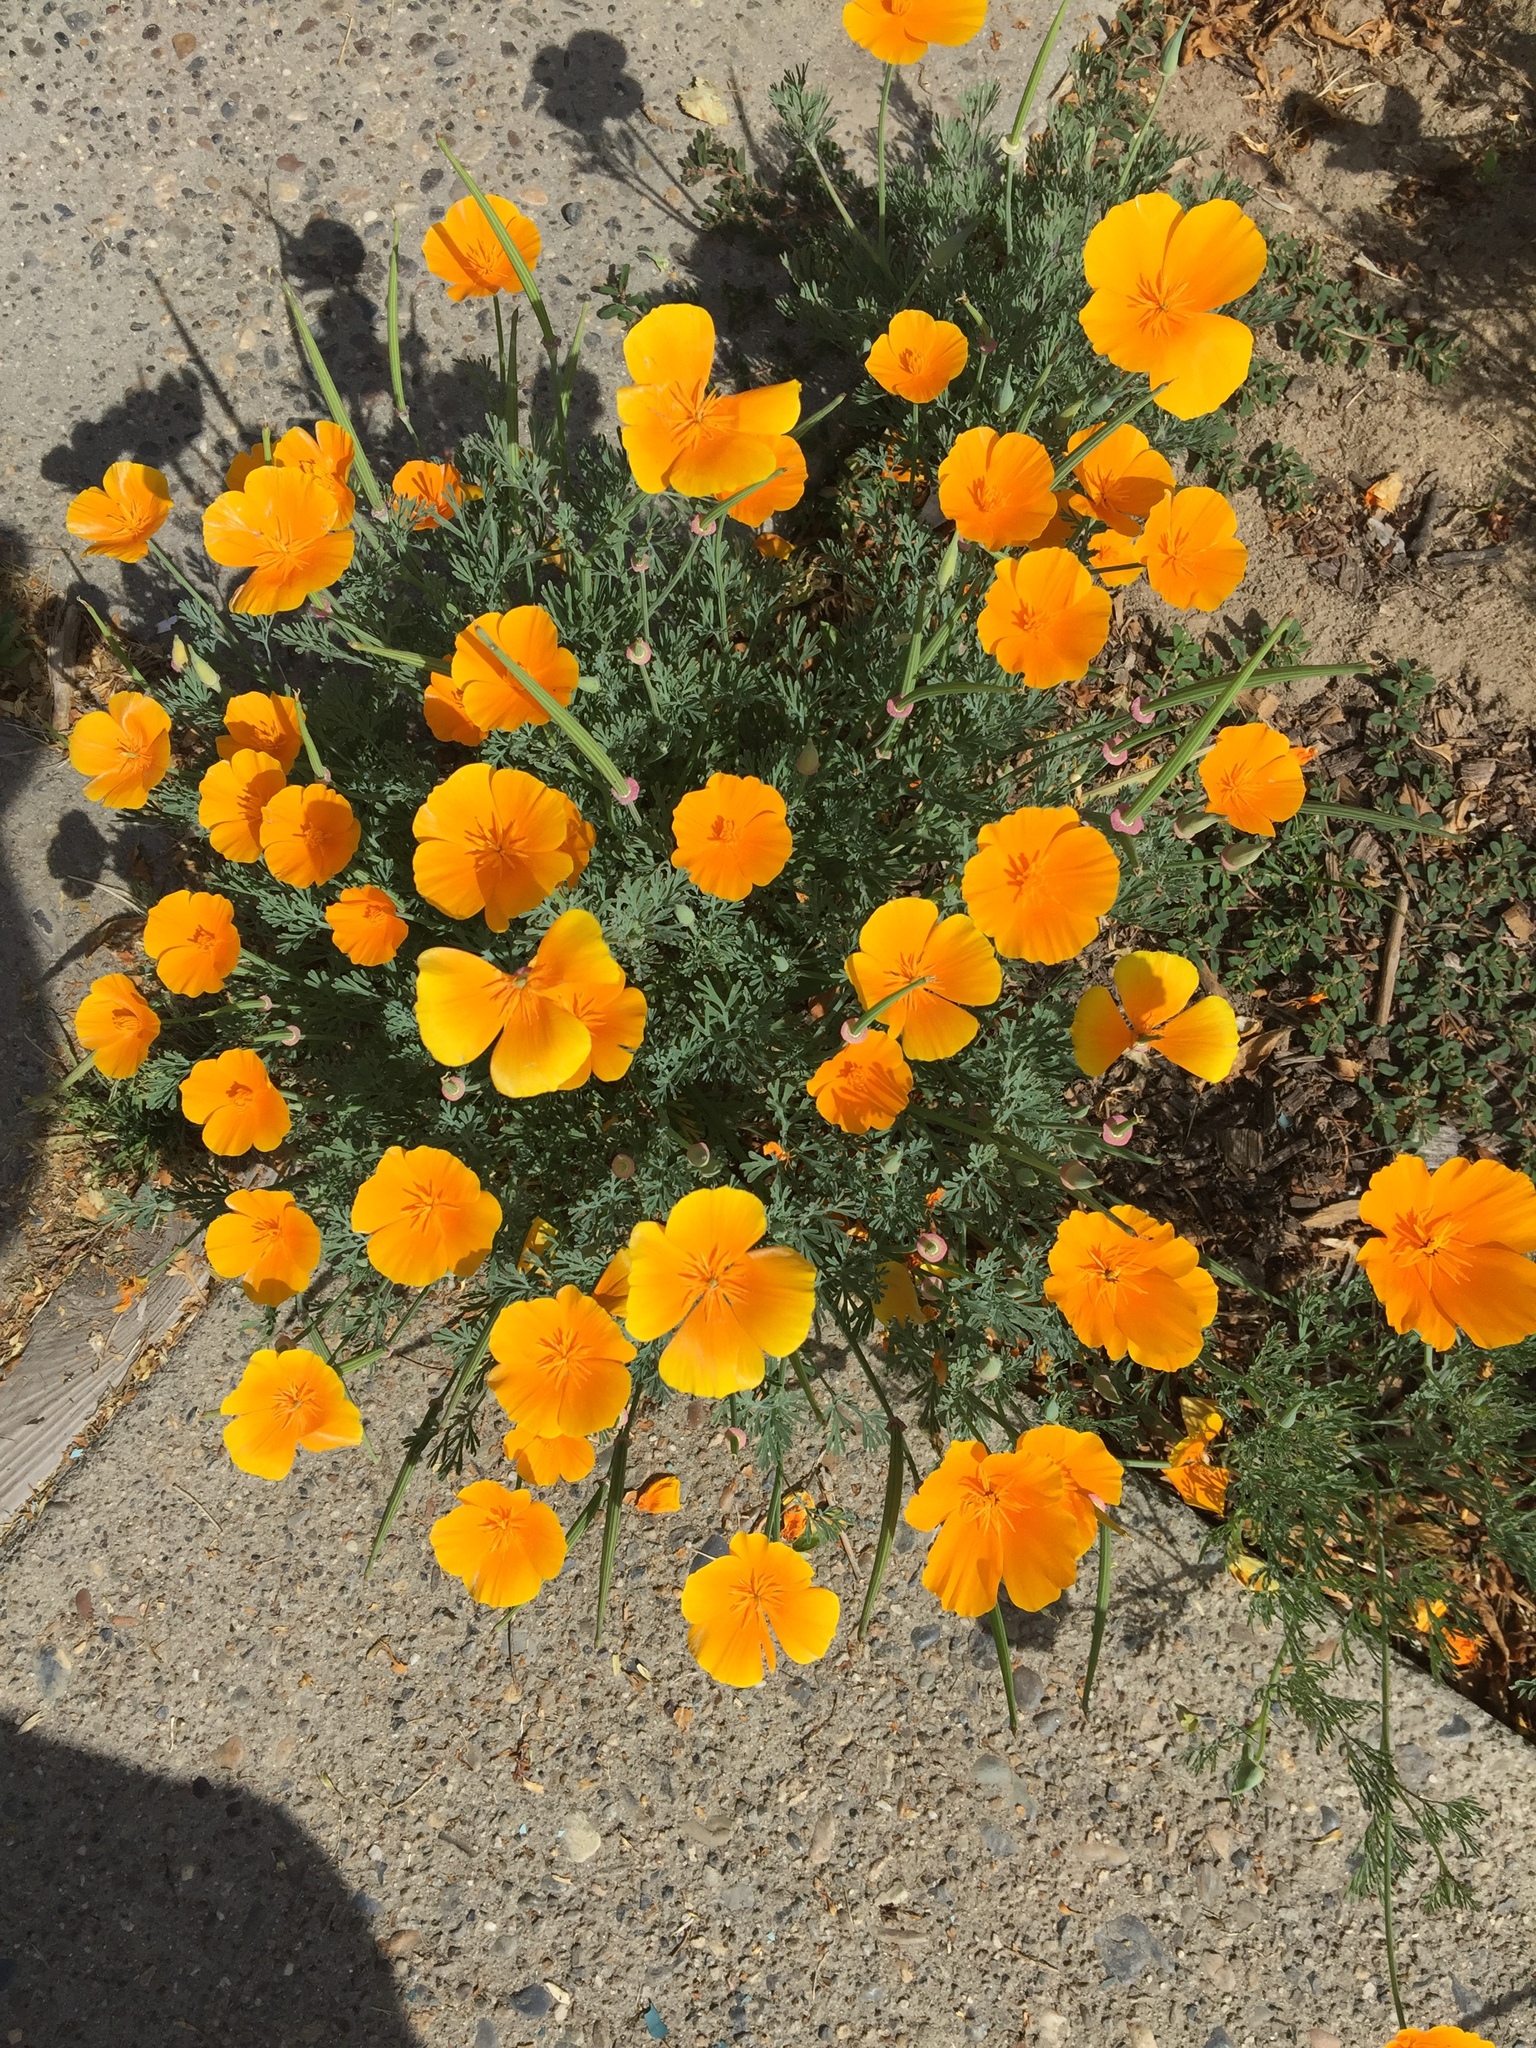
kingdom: Plantae
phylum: Tracheophyta
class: Magnoliopsida
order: Ranunculales
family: Papaveraceae
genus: Eschscholzia
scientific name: Eschscholzia californica
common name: California poppy
